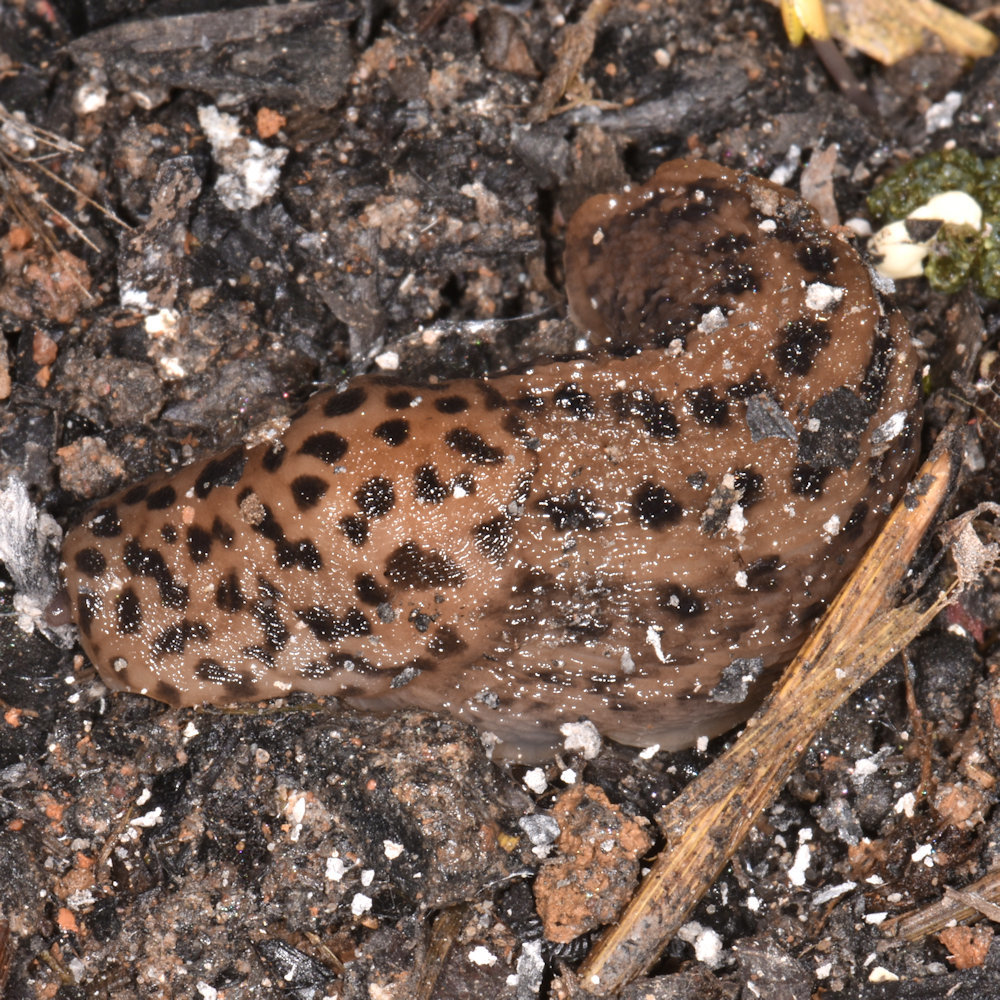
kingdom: Animalia
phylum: Mollusca
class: Gastropoda
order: Stylommatophora
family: Limacidae
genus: Limax
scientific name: Limax maximus
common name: Great grey slug
